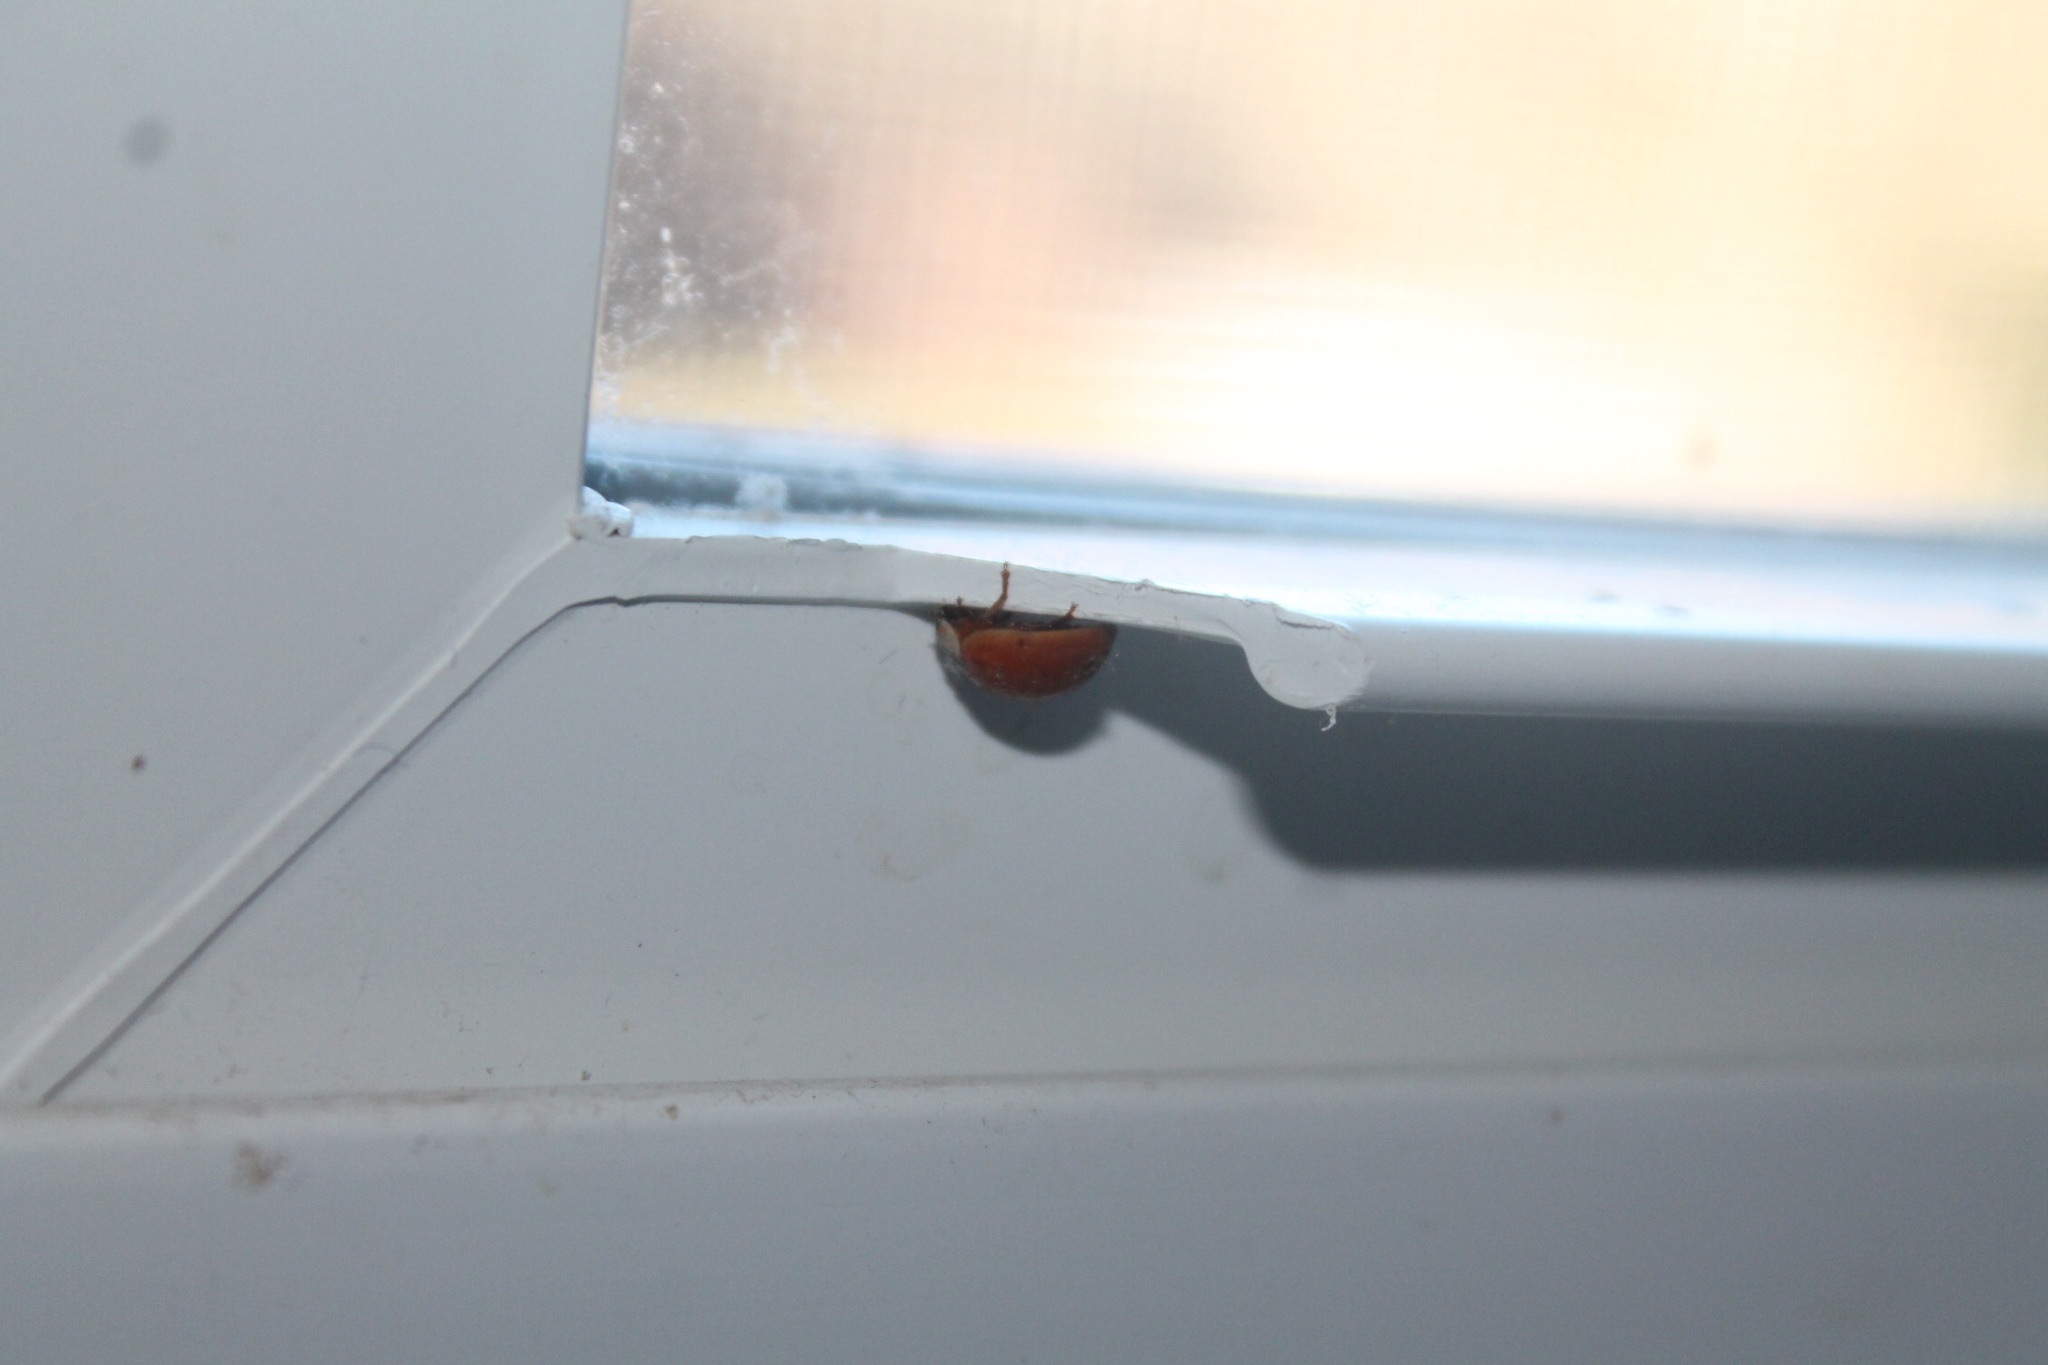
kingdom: Animalia
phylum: Arthropoda
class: Insecta
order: Coleoptera
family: Coccinellidae
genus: Harmonia
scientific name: Harmonia axyridis
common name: Harlequin ladybird
